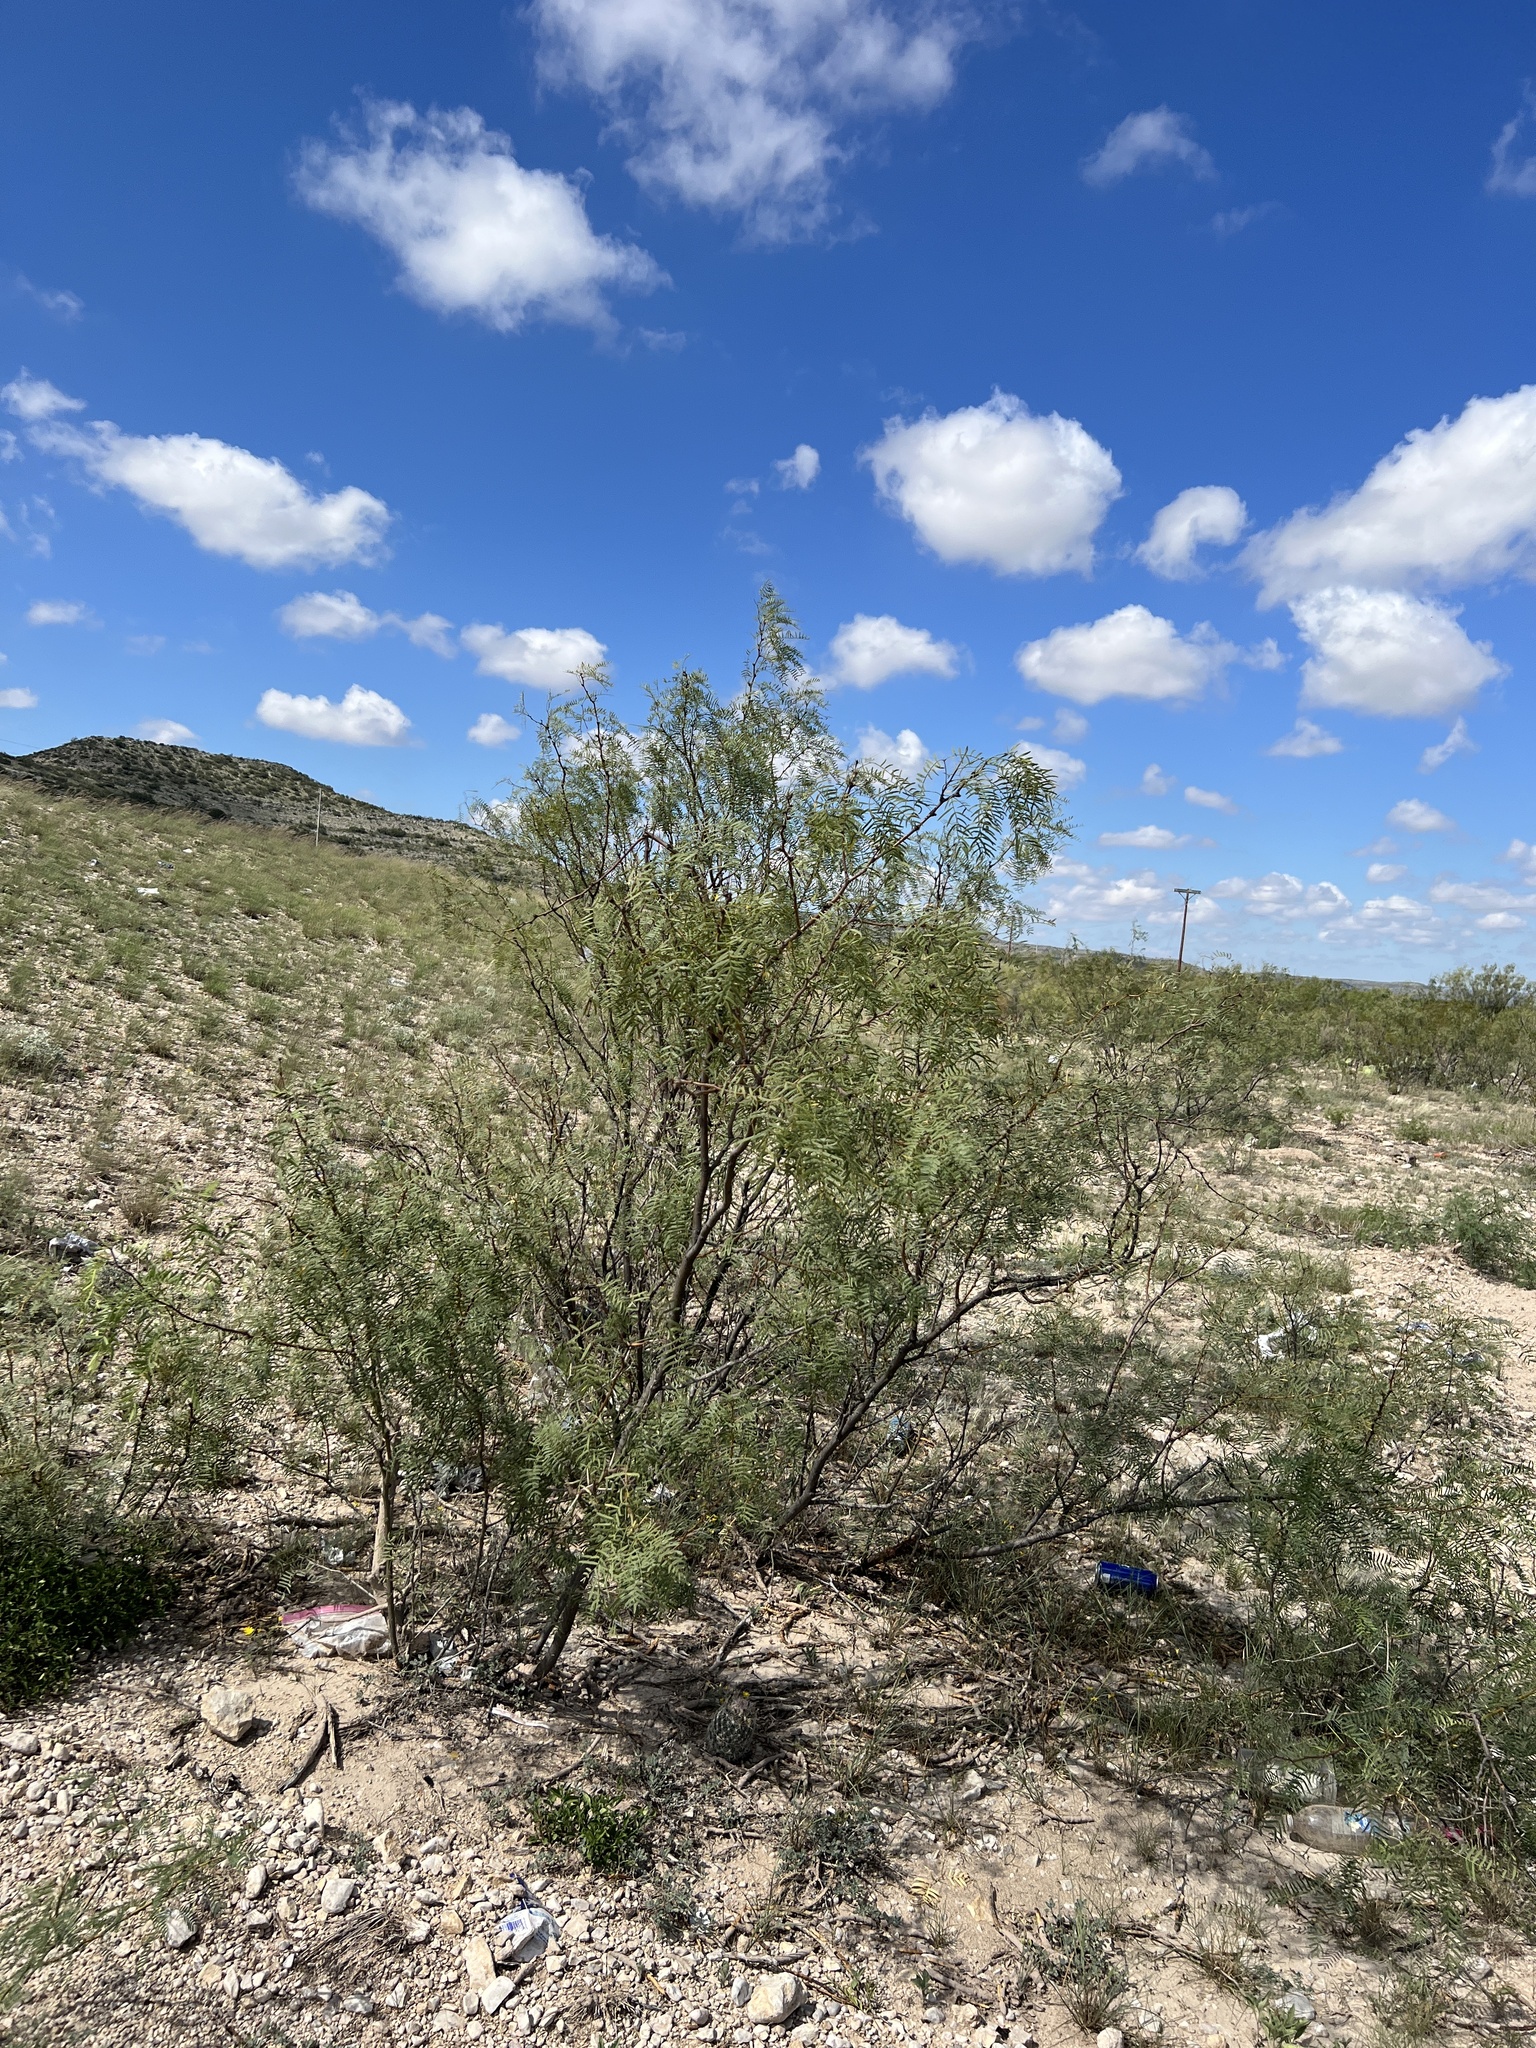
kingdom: Plantae
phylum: Tracheophyta
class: Magnoliopsida
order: Fabales
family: Fabaceae
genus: Prosopis
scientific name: Prosopis glandulosa
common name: Honey mesquite
